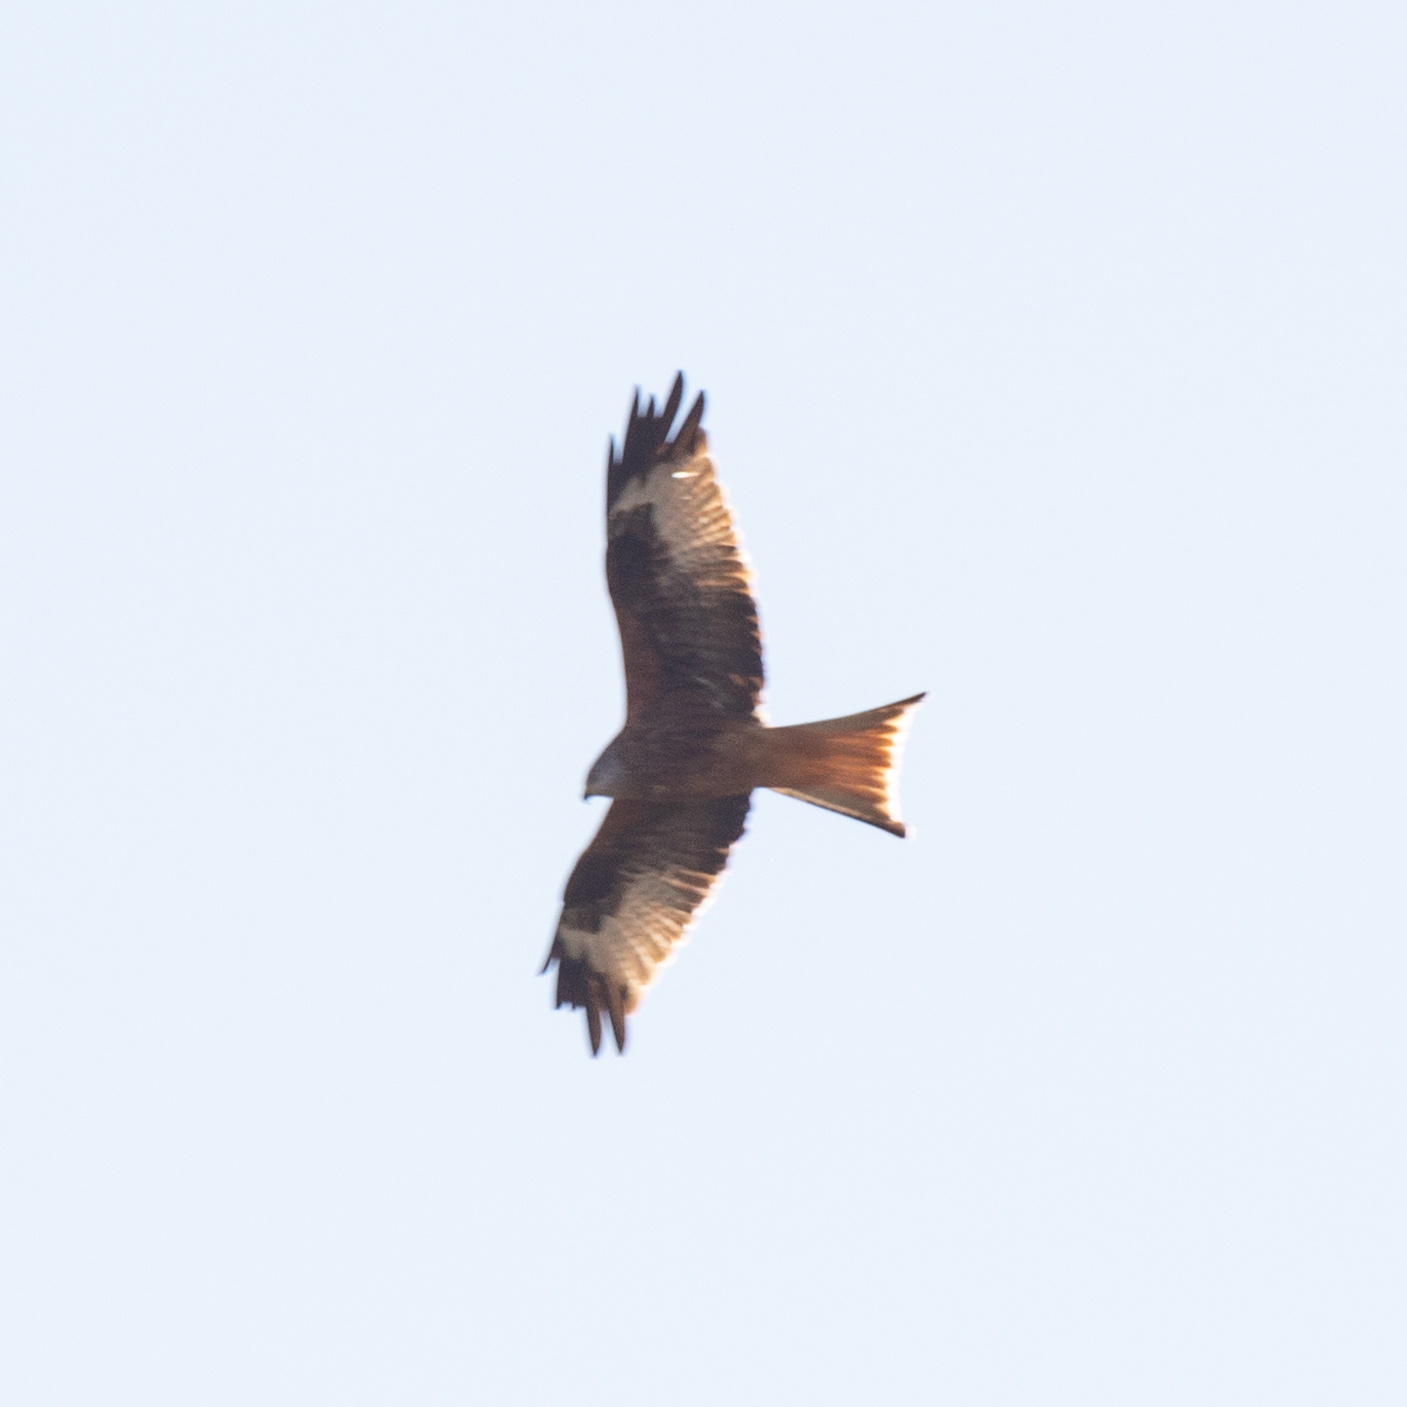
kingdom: Animalia
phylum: Chordata
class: Aves
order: Accipitriformes
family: Accipitridae
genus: Milvus
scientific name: Milvus milvus
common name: Red kite
